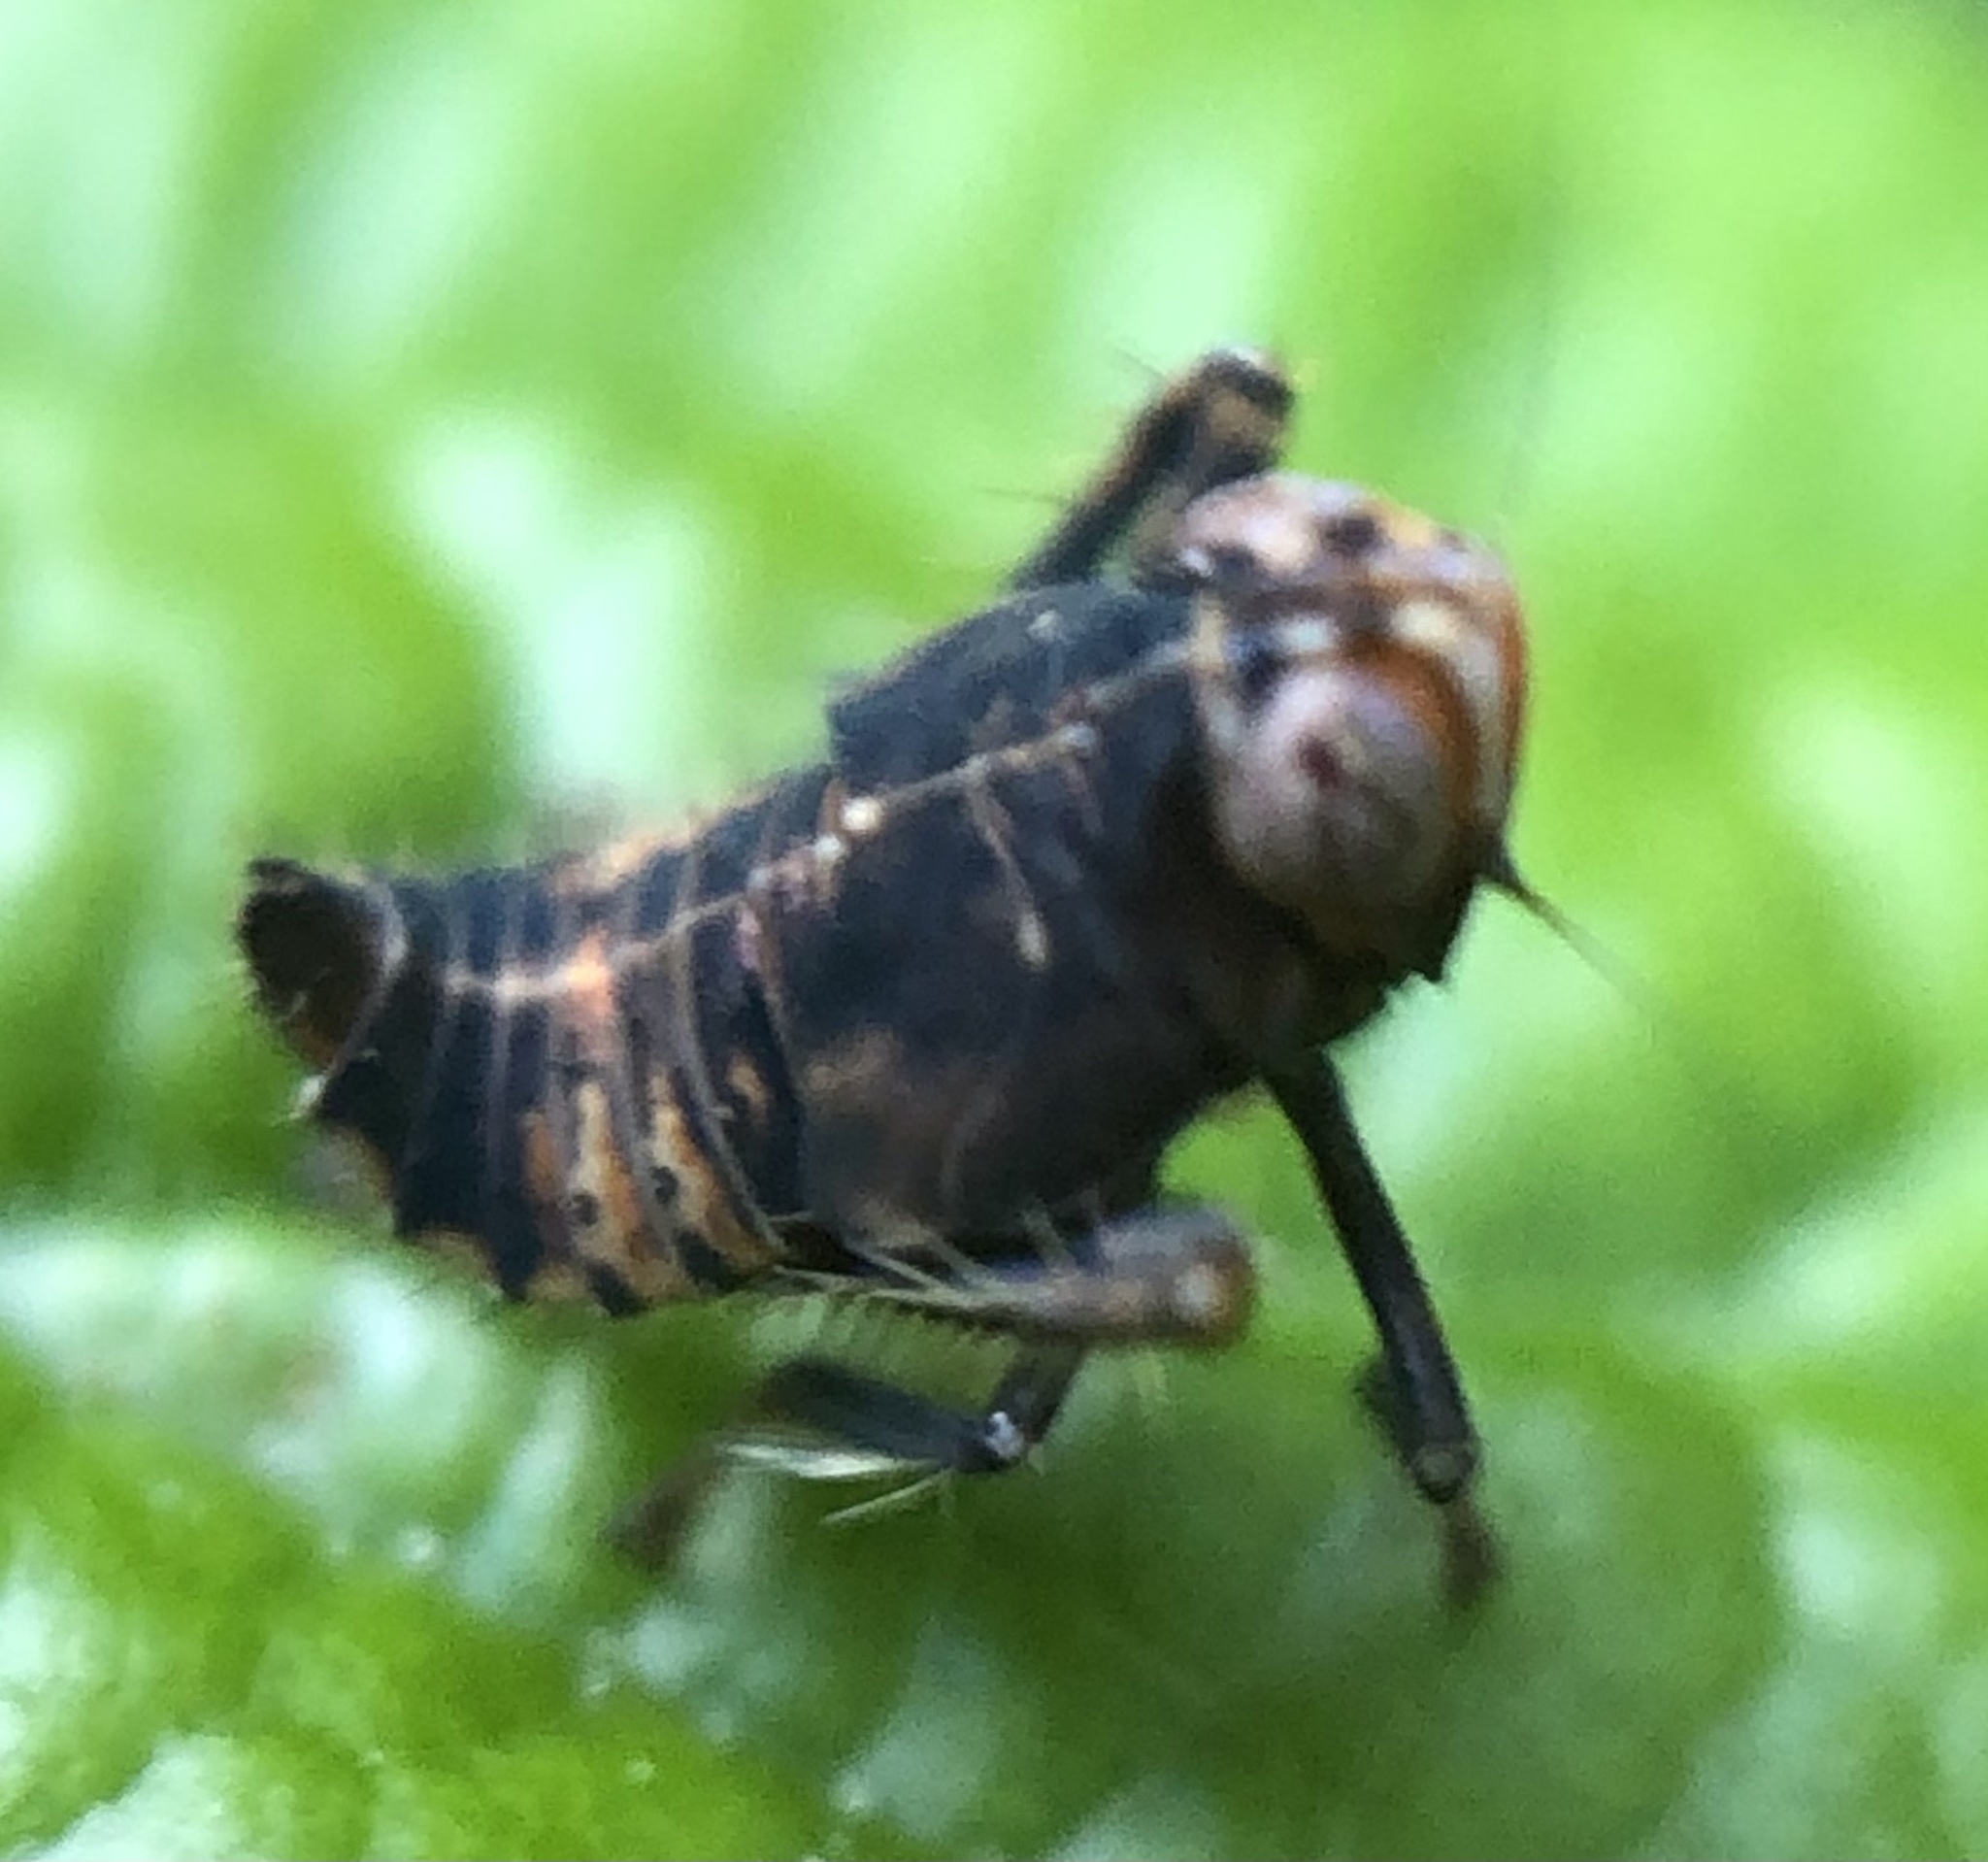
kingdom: Animalia
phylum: Arthropoda
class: Insecta
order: Hemiptera
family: Cicadellidae
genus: Jikradia
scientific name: Jikradia olitoria
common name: Coppery leafhopper
